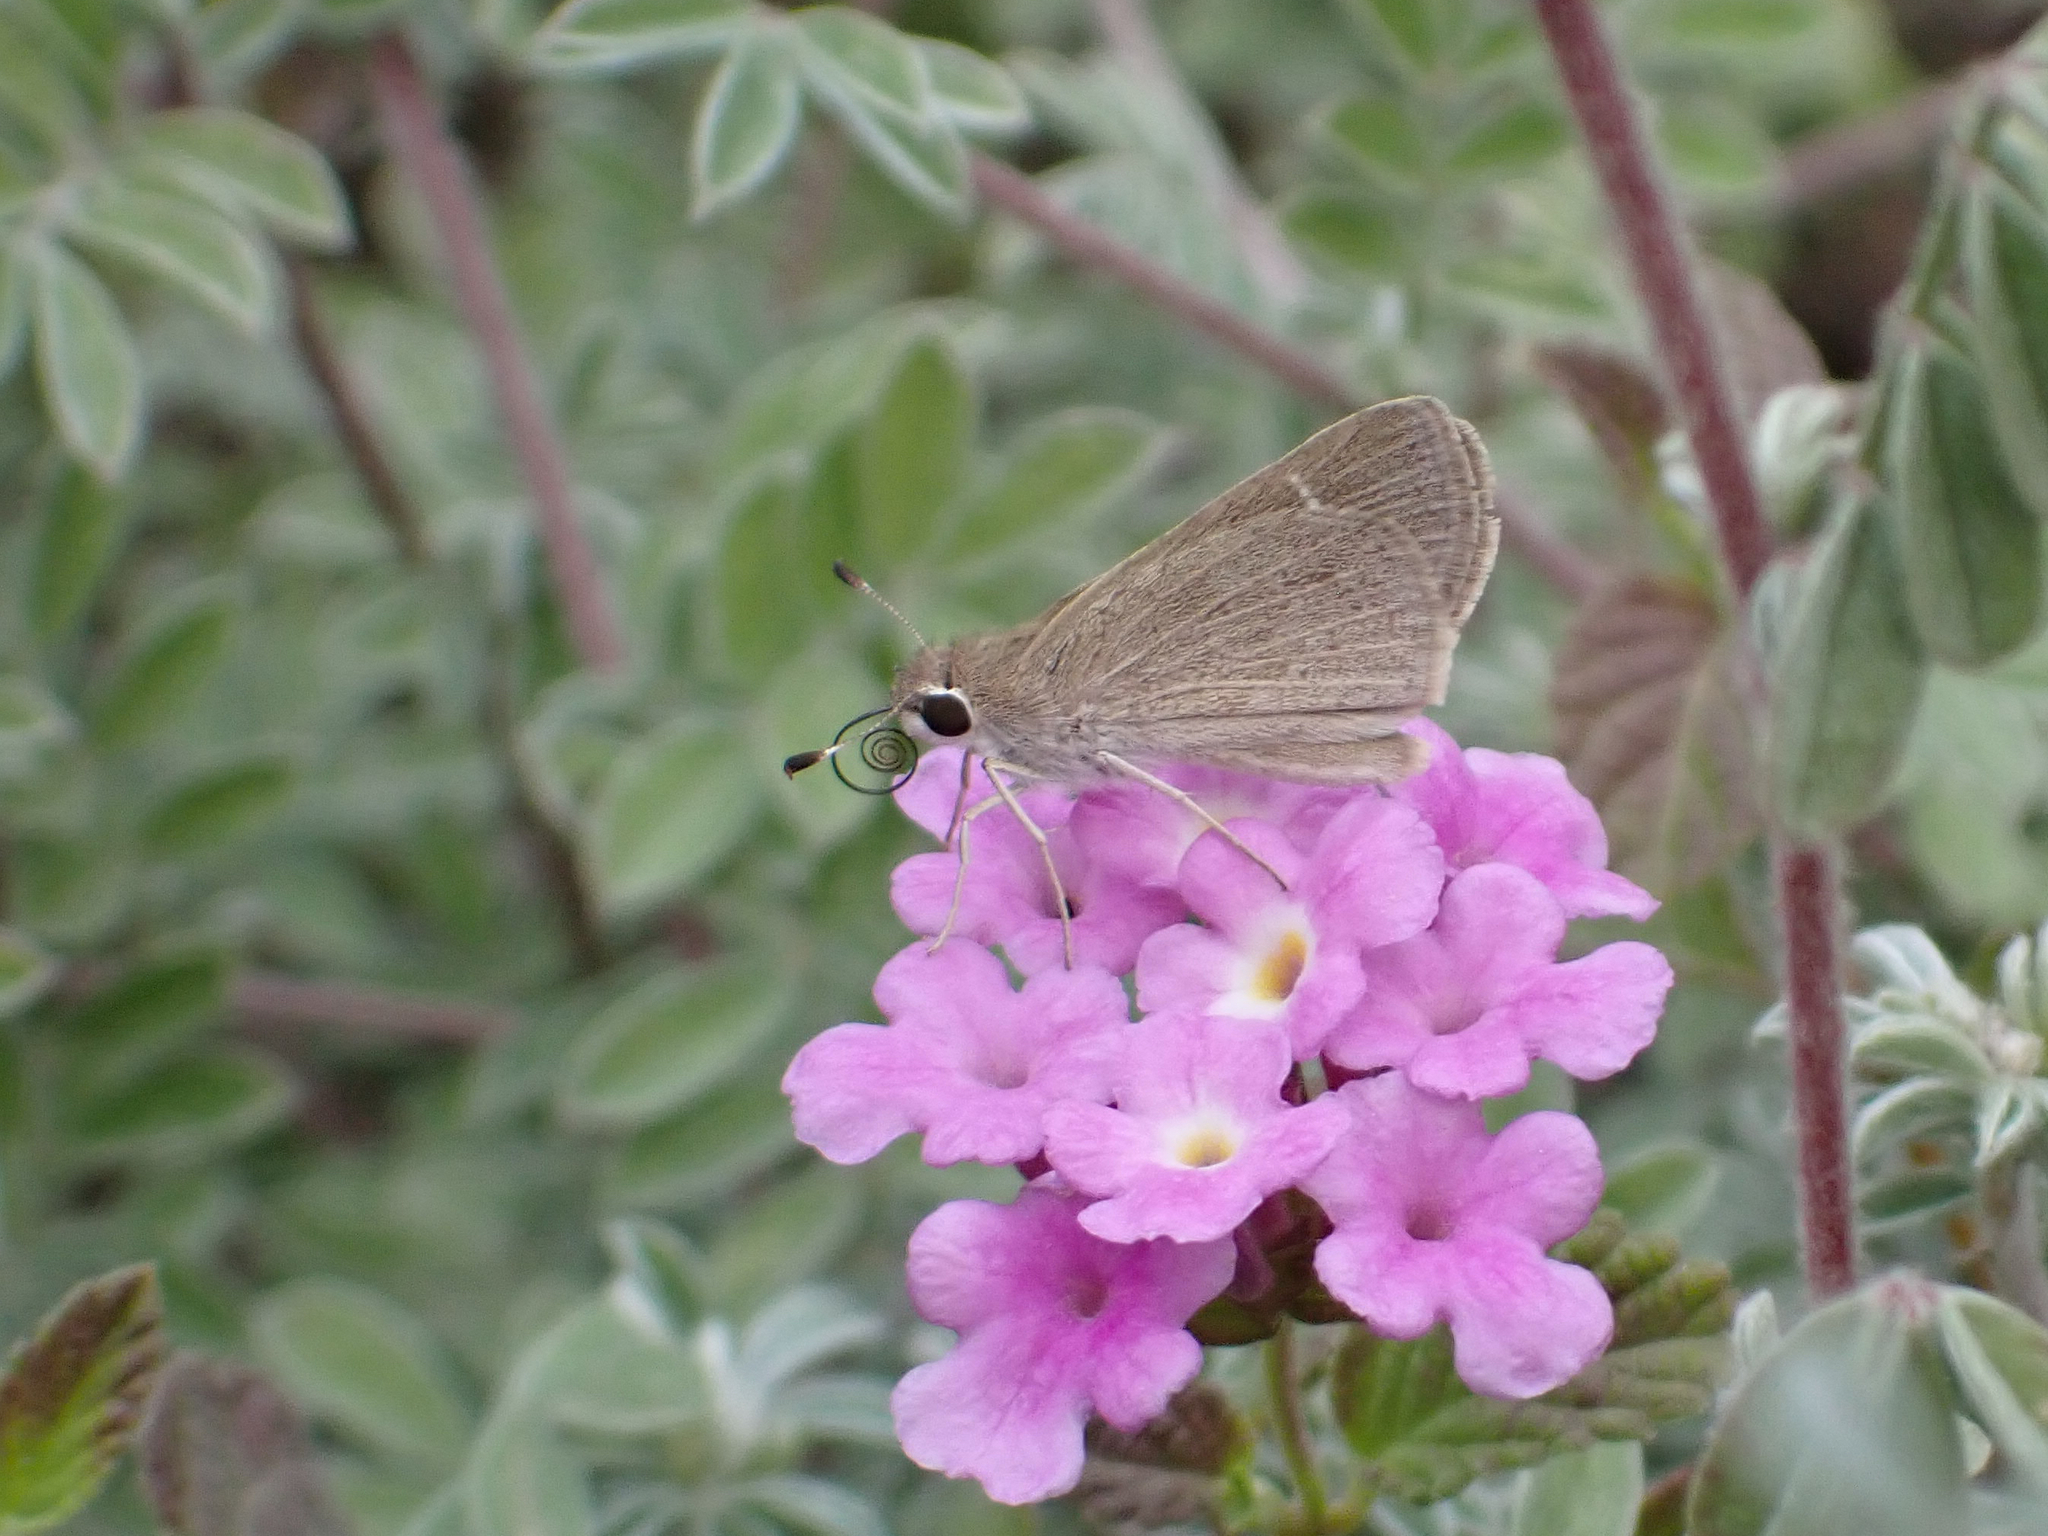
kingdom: Animalia
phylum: Arthropoda
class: Insecta
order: Lepidoptera
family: Hesperiidae
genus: Lerodea
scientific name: Lerodea eufala
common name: Eufala skipper
